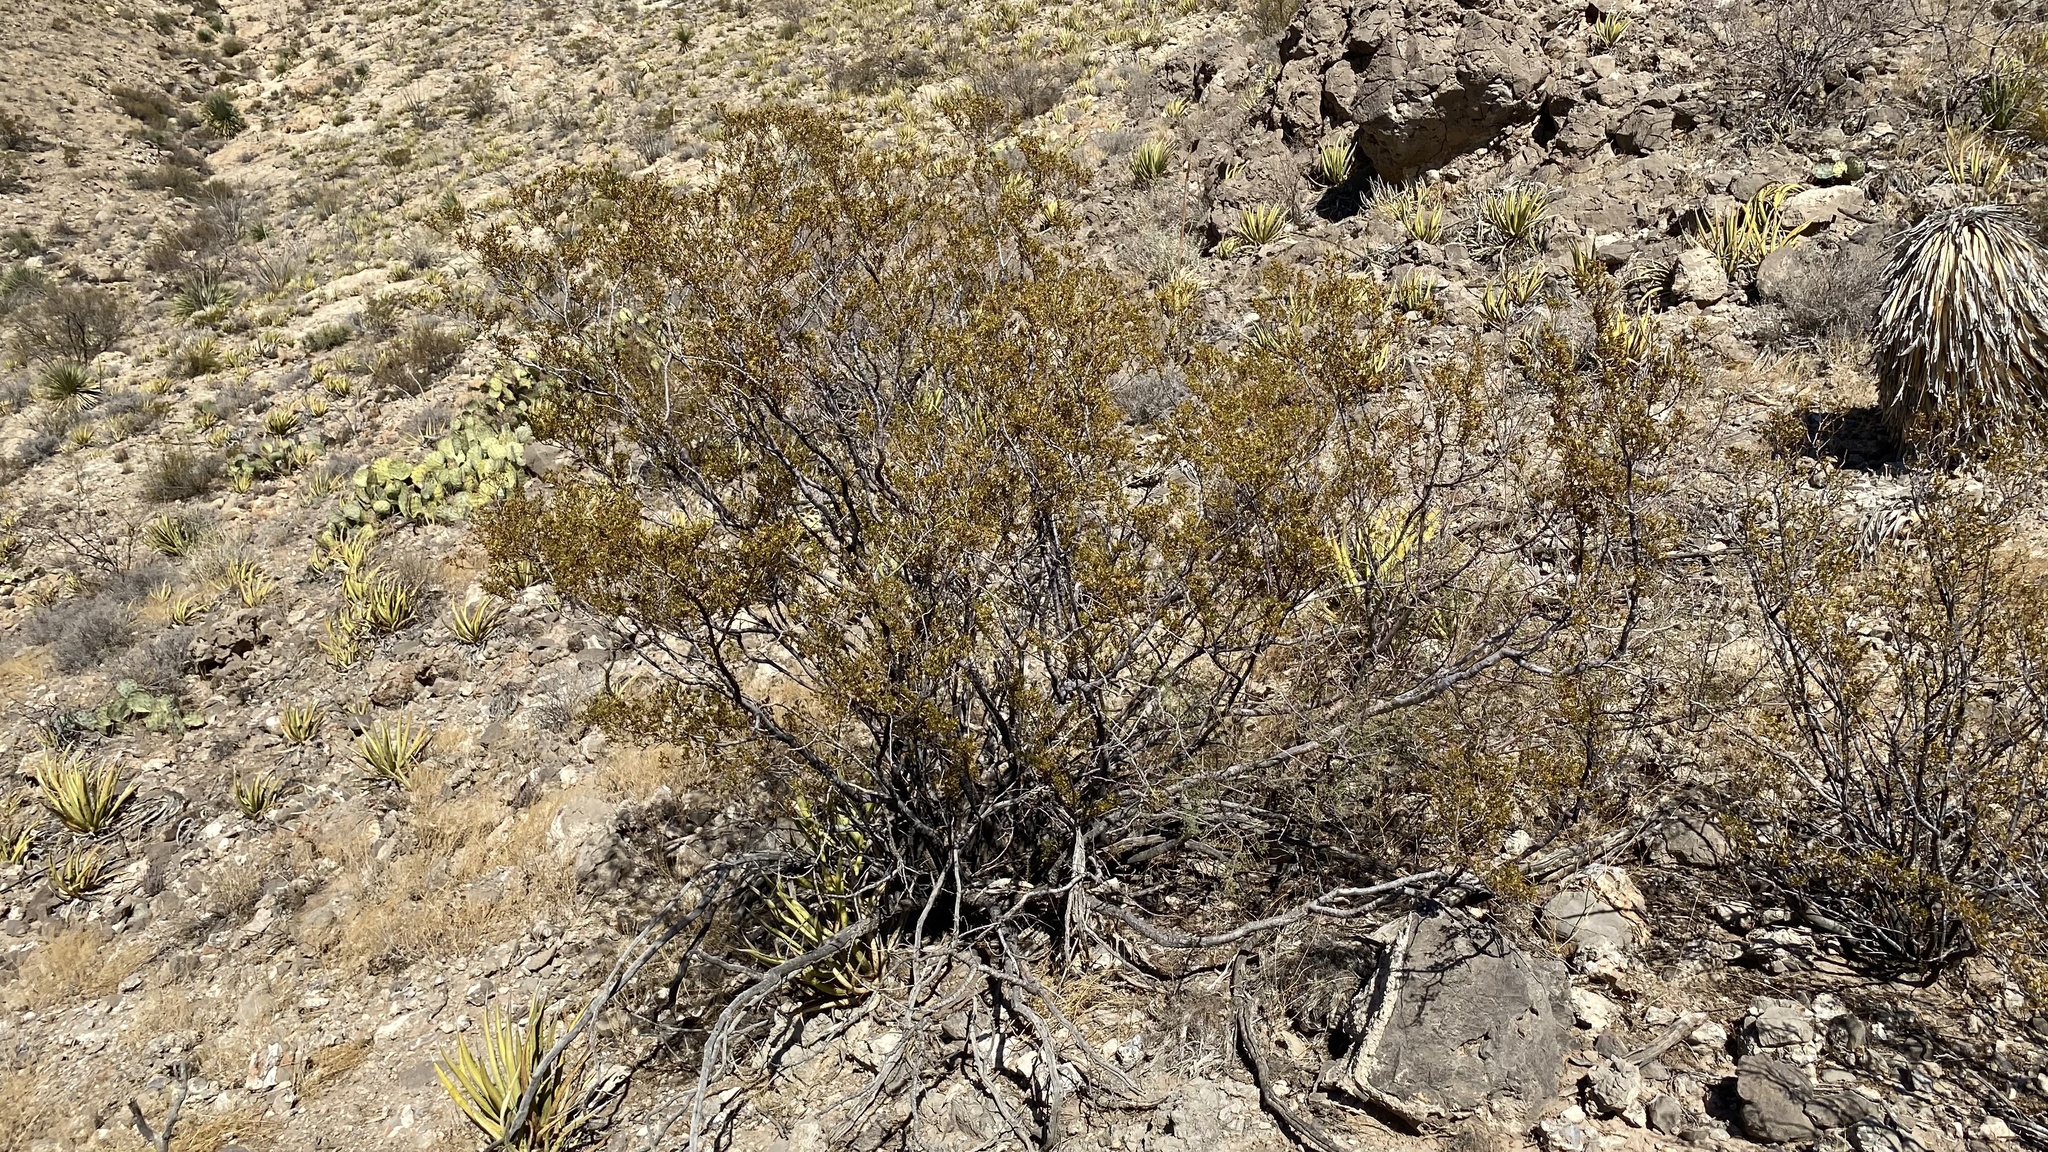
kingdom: Plantae
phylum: Tracheophyta
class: Magnoliopsida
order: Zygophyllales
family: Zygophyllaceae
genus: Larrea
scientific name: Larrea tridentata
